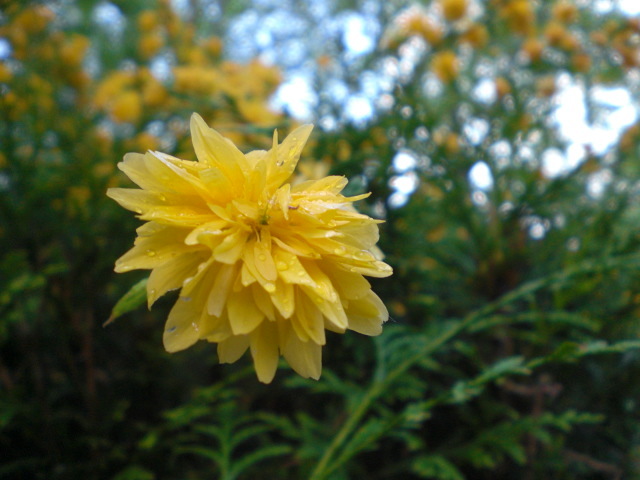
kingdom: Plantae
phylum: Tracheophyta
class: Magnoliopsida
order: Rosales
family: Rosaceae
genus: Kerria
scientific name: Kerria japonica
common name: Japanese kerria
